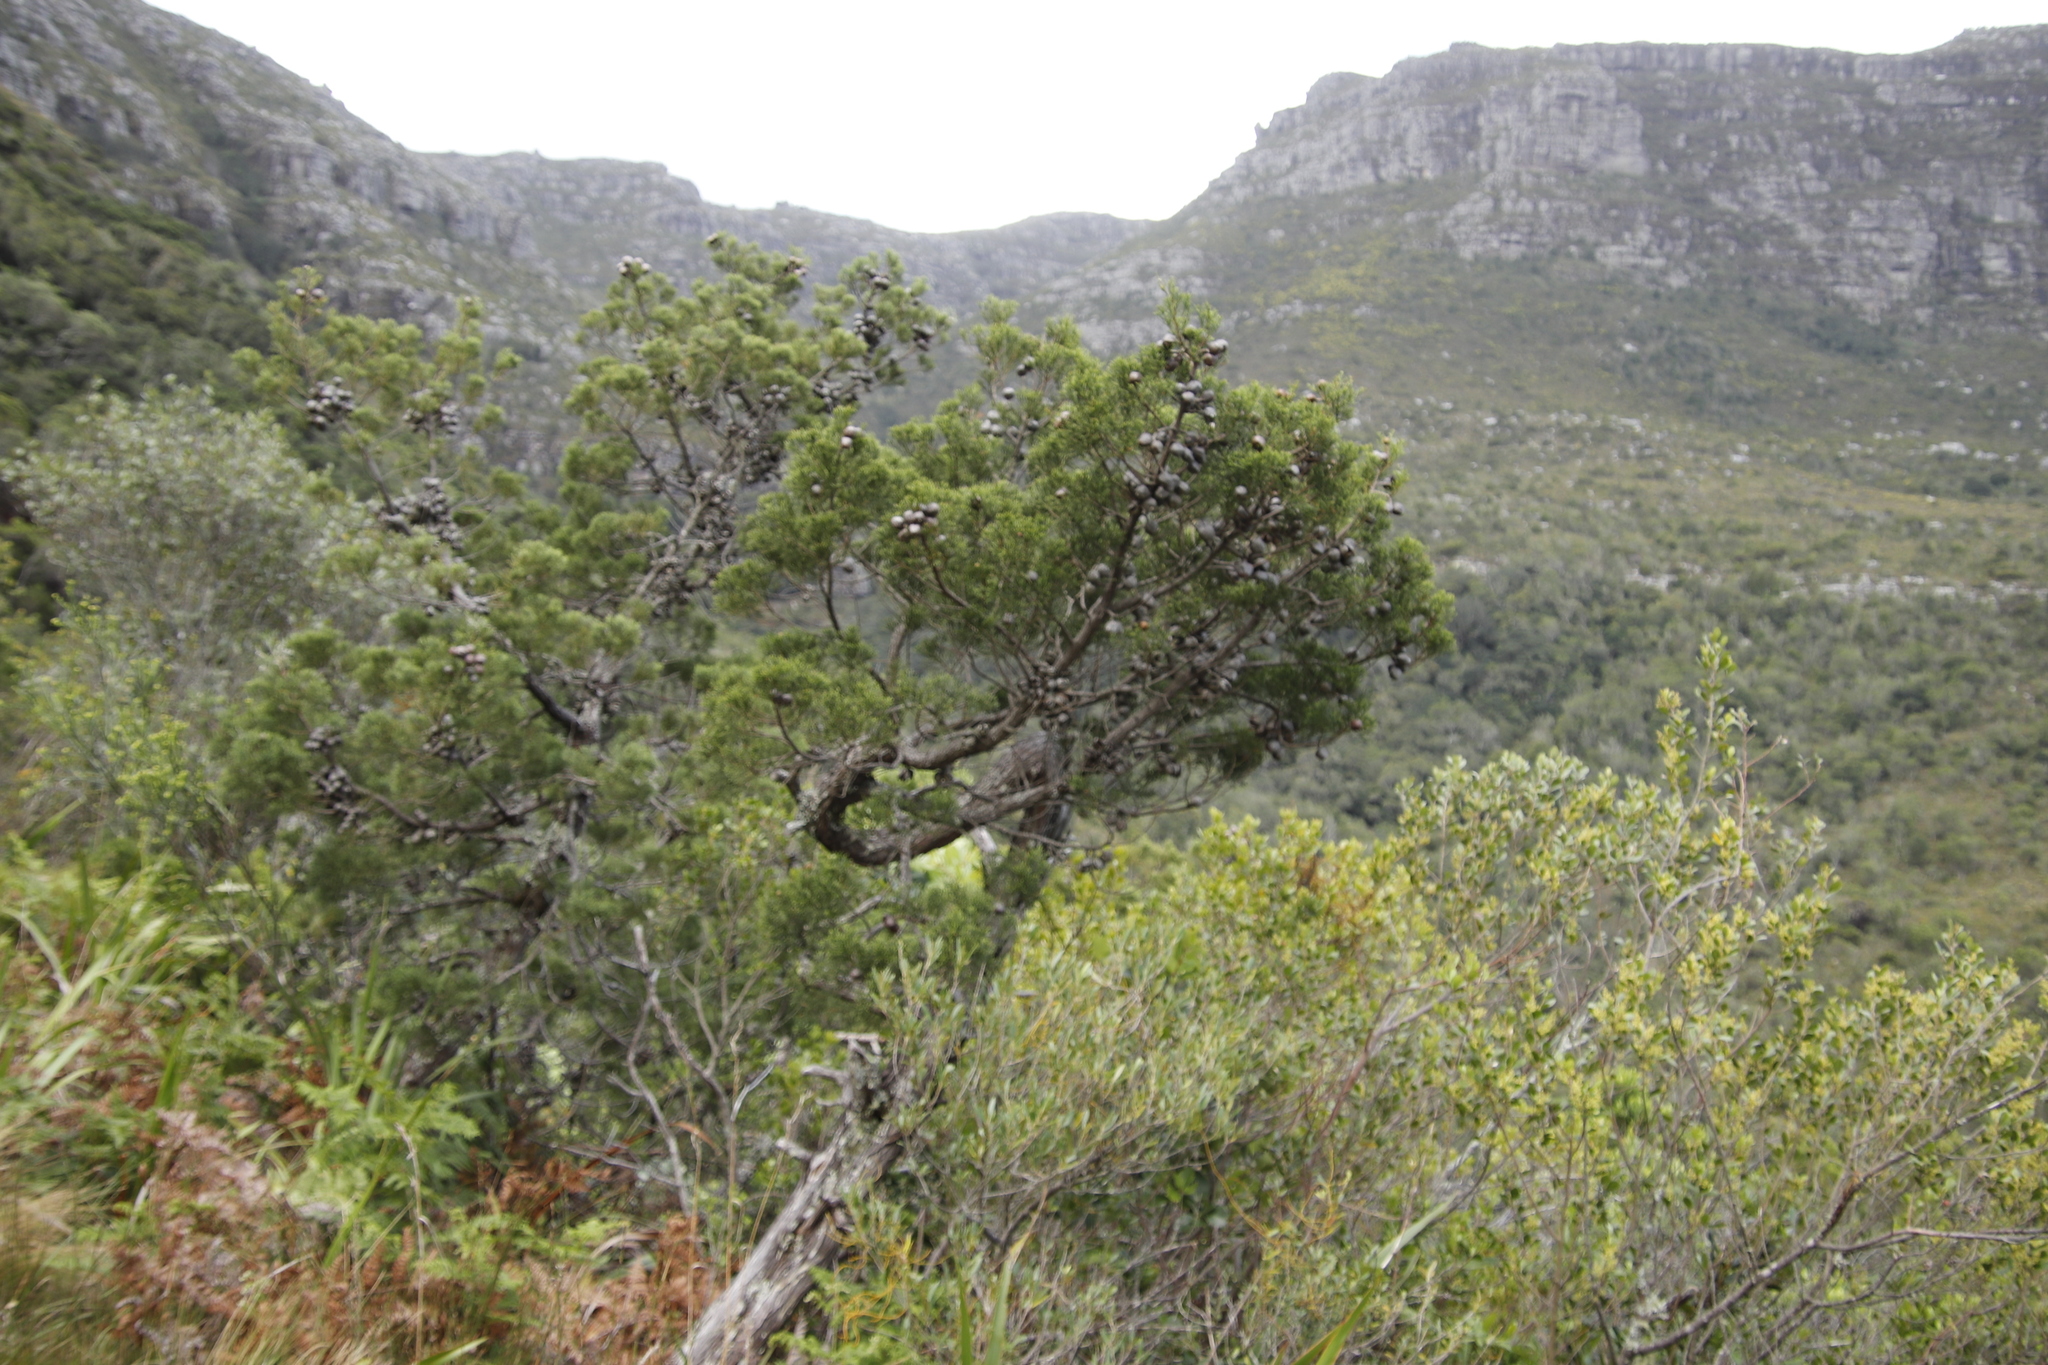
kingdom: Plantae
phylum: Tracheophyta
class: Pinopsida
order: Pinales
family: Cupressaceae
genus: Widdringtonia
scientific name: Widdringtonia nodiflora
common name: Cape cypress
